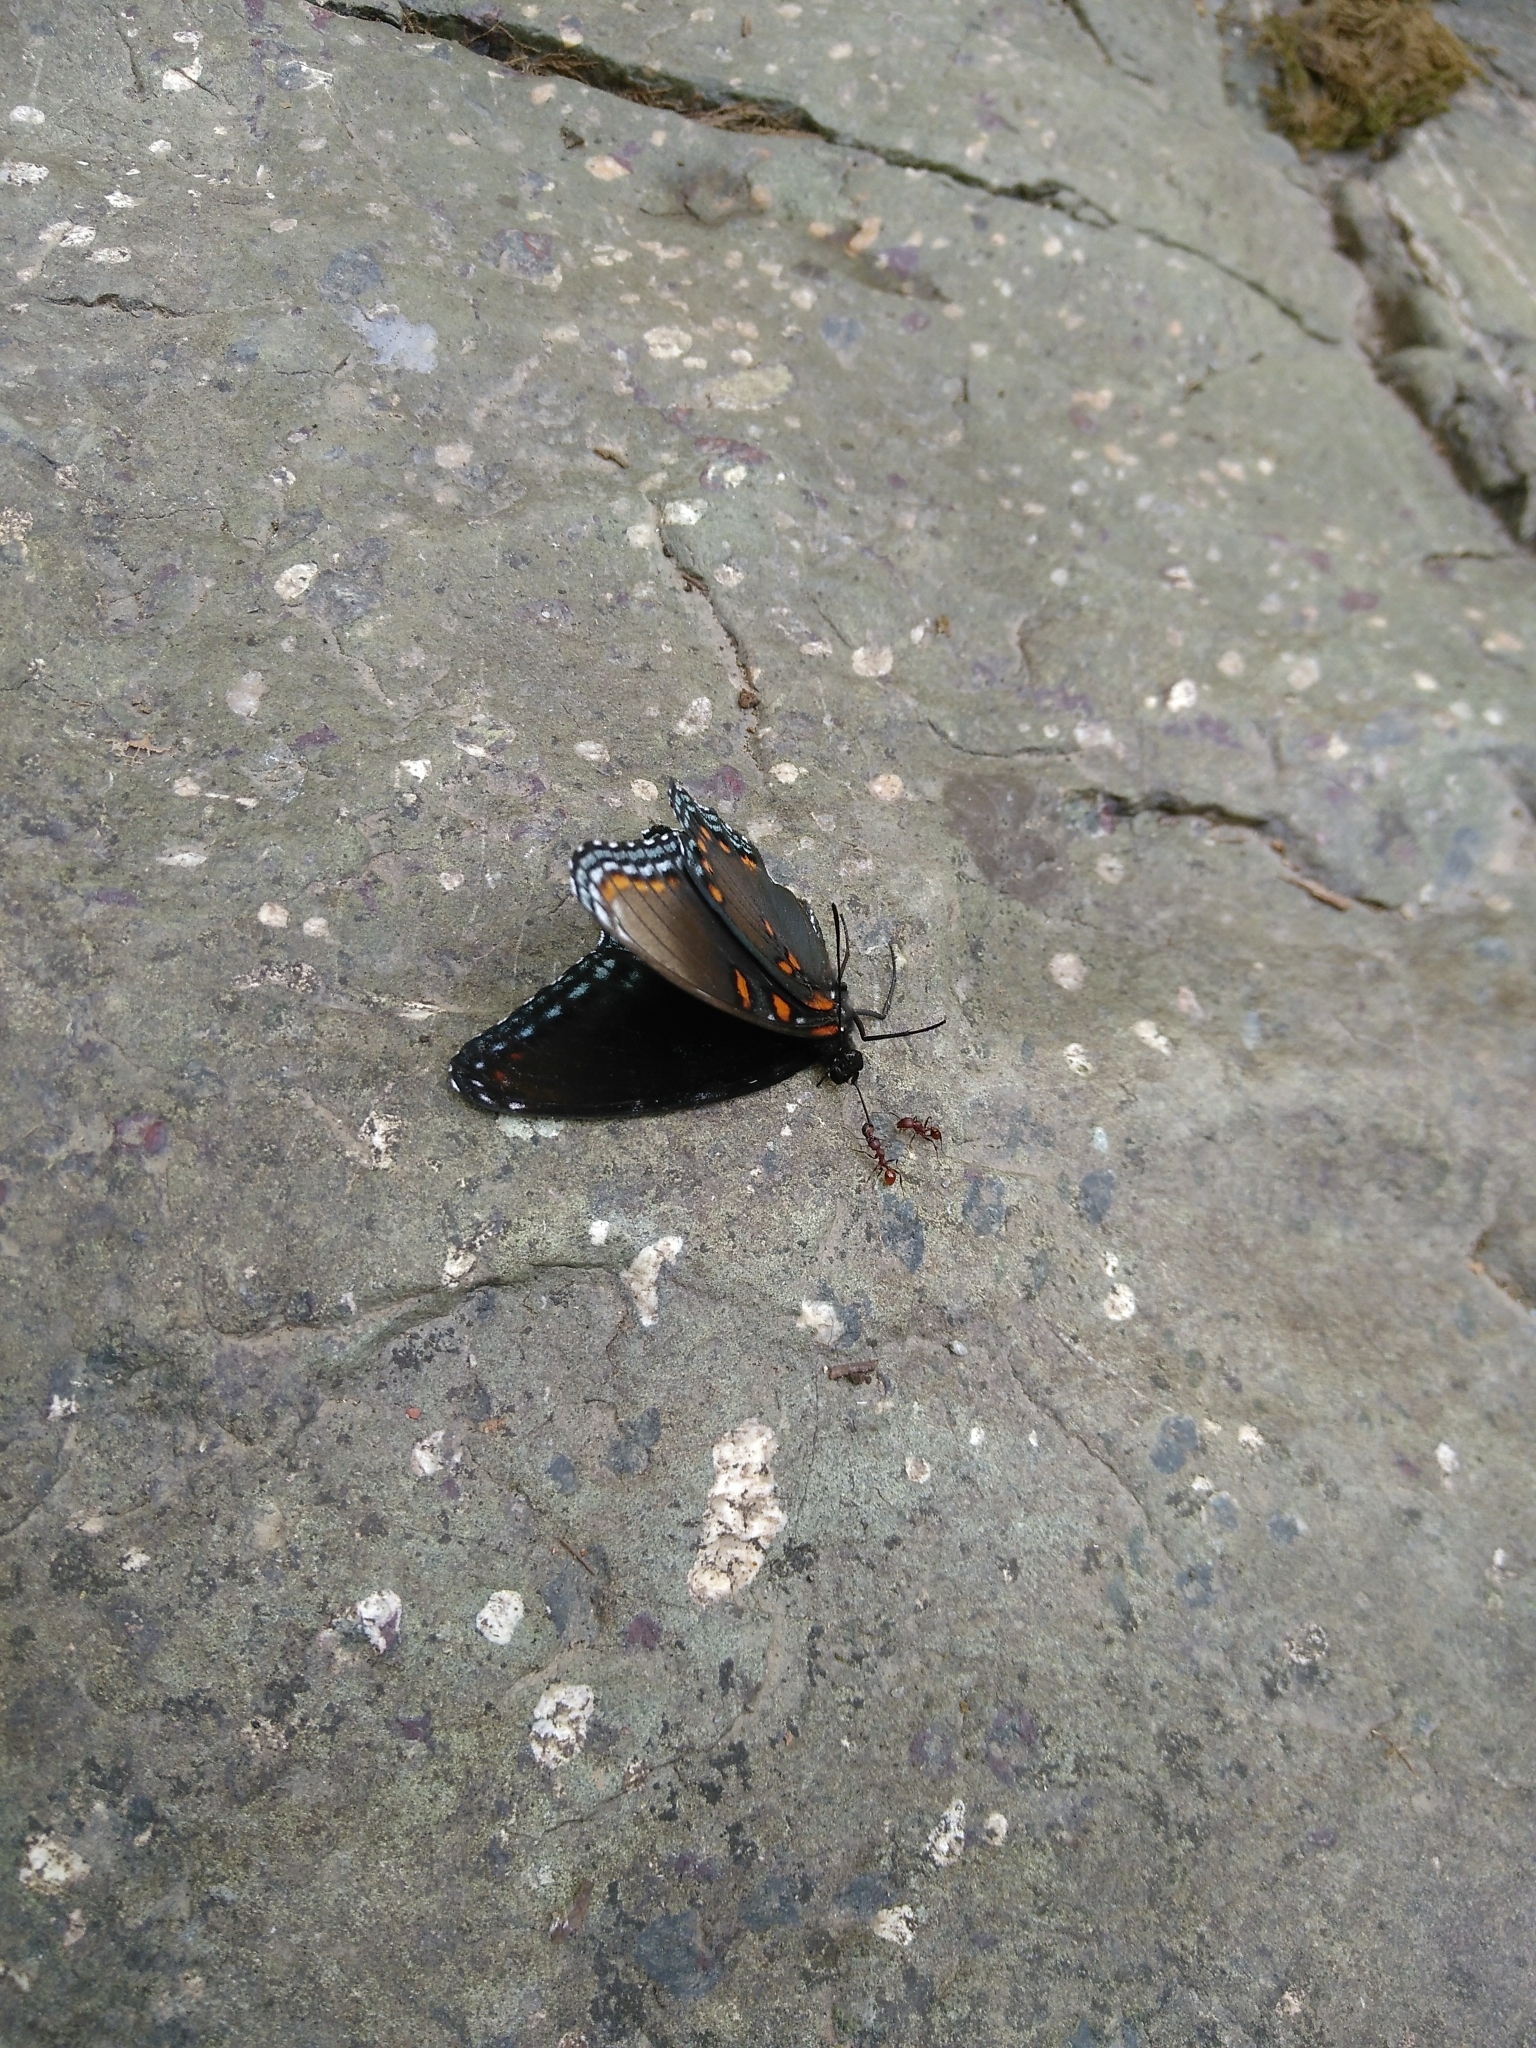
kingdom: Animalia
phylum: Arthropoda
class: Insecta
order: Lepidoptera
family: Nymphalidae
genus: Limenitis
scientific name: Limenitis astyanax
